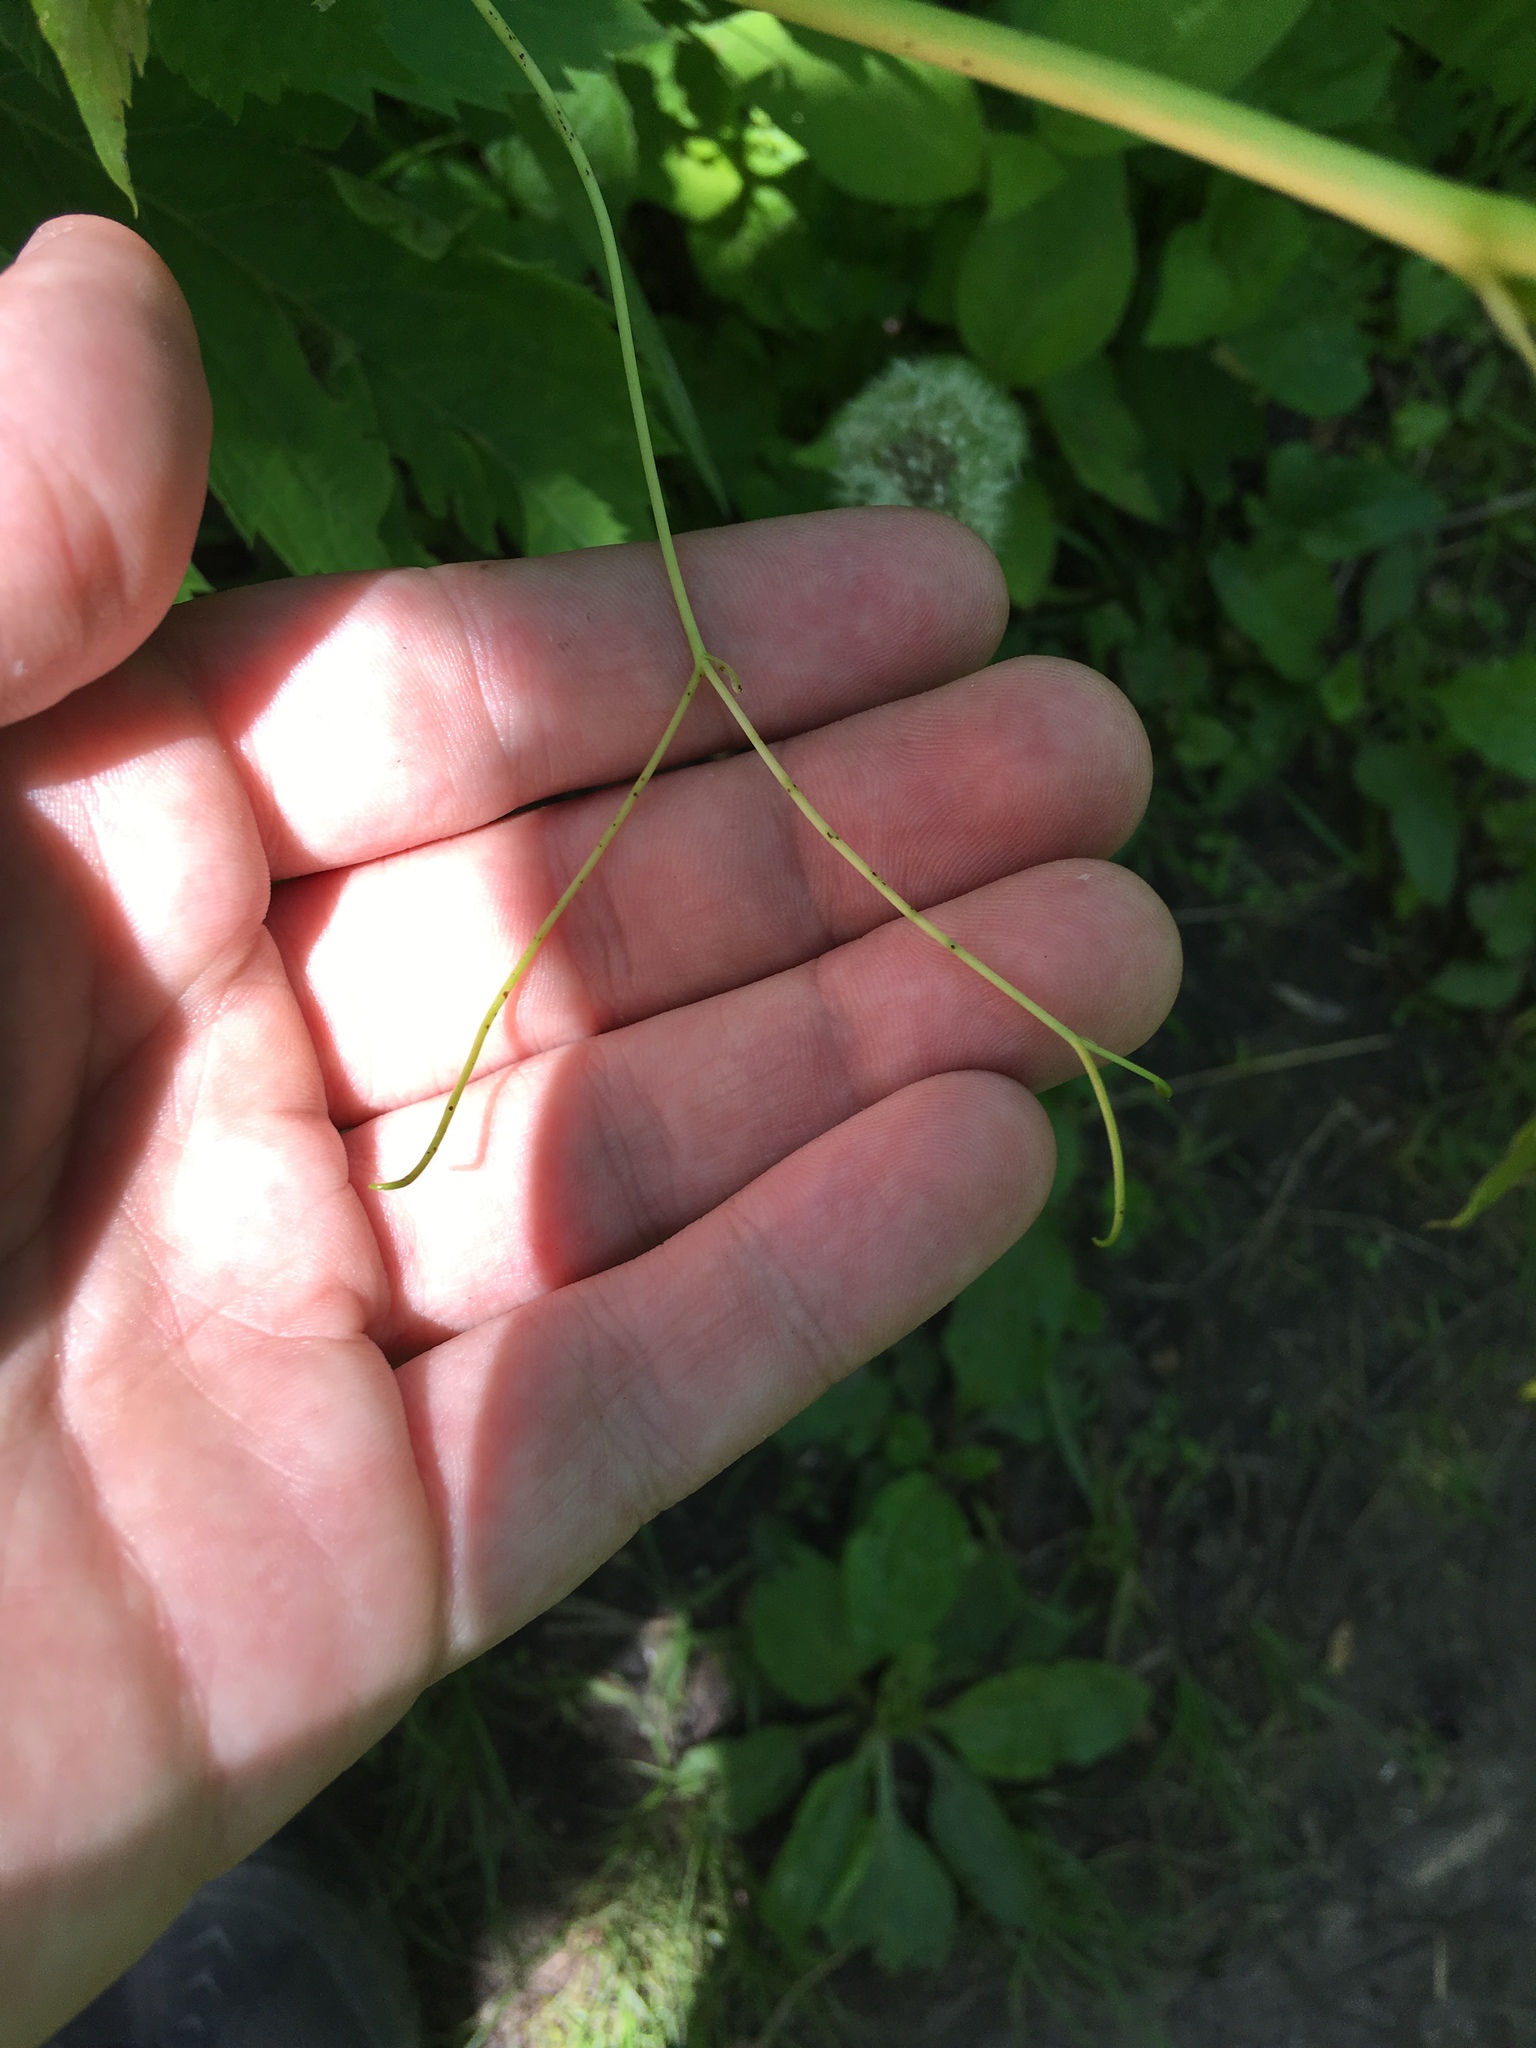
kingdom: Plantae
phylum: Tracheophyta
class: Magnoliopsida
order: Vitales
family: Vitaceae
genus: Parthenocissus
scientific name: Parthenocissus inserta
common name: False virginia-creeper
